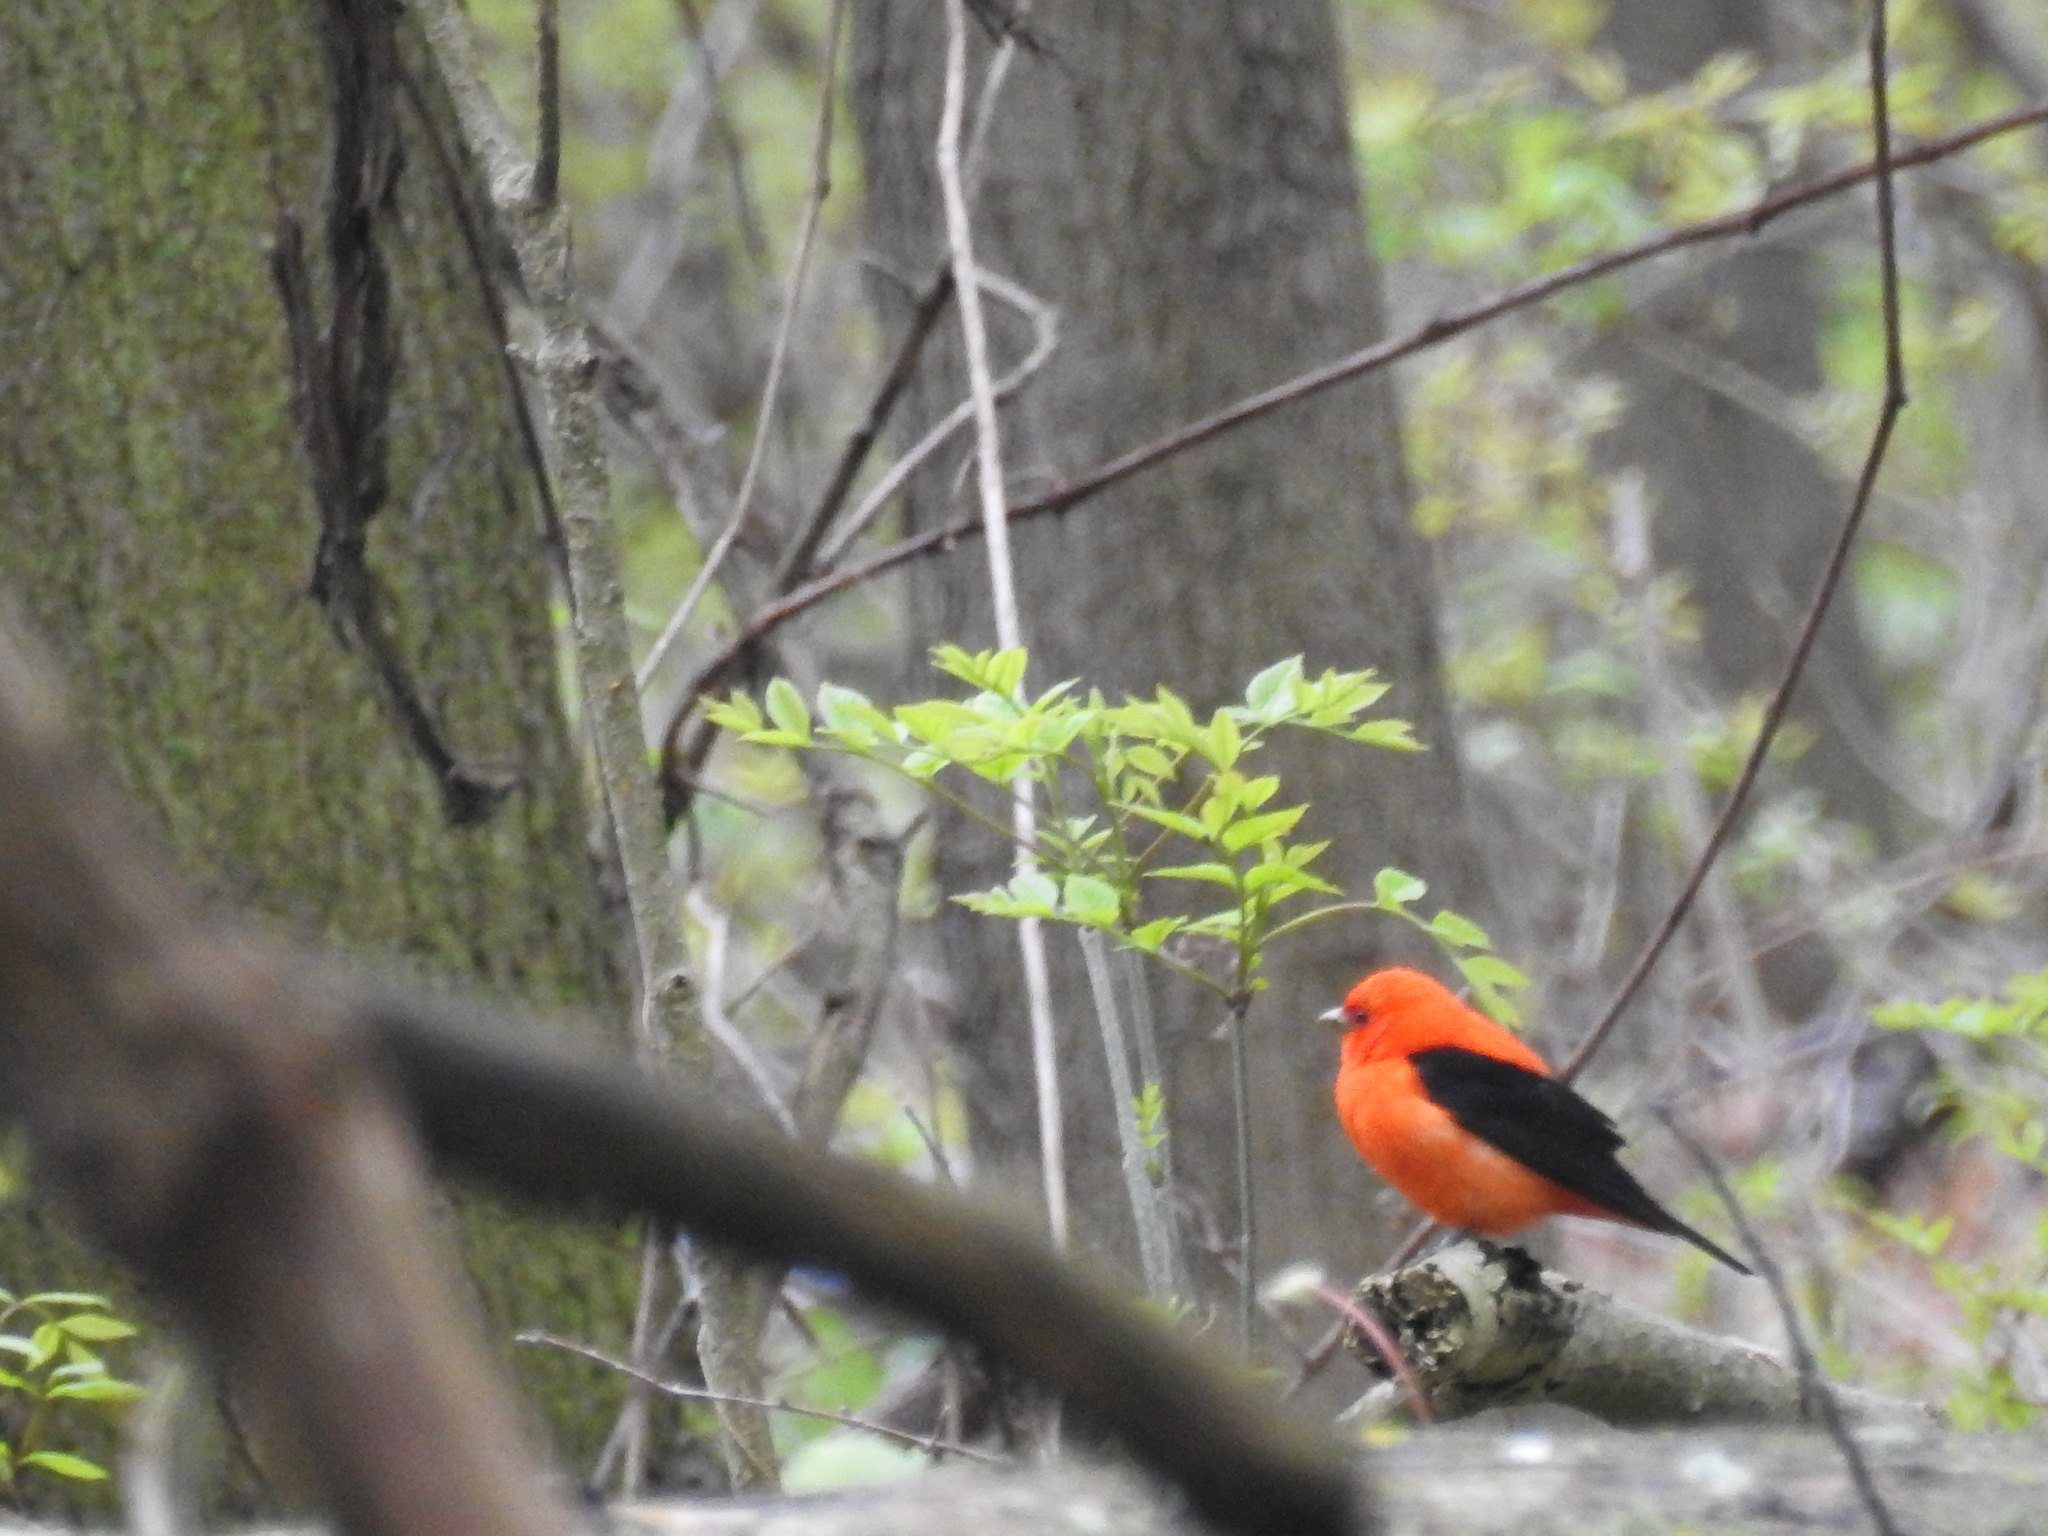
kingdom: Animalia
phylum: Chordata
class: Aves
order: Passeriformes
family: Cardinalidae
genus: Piranga
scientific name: Piranga olivacea
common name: Scarlet tanager
